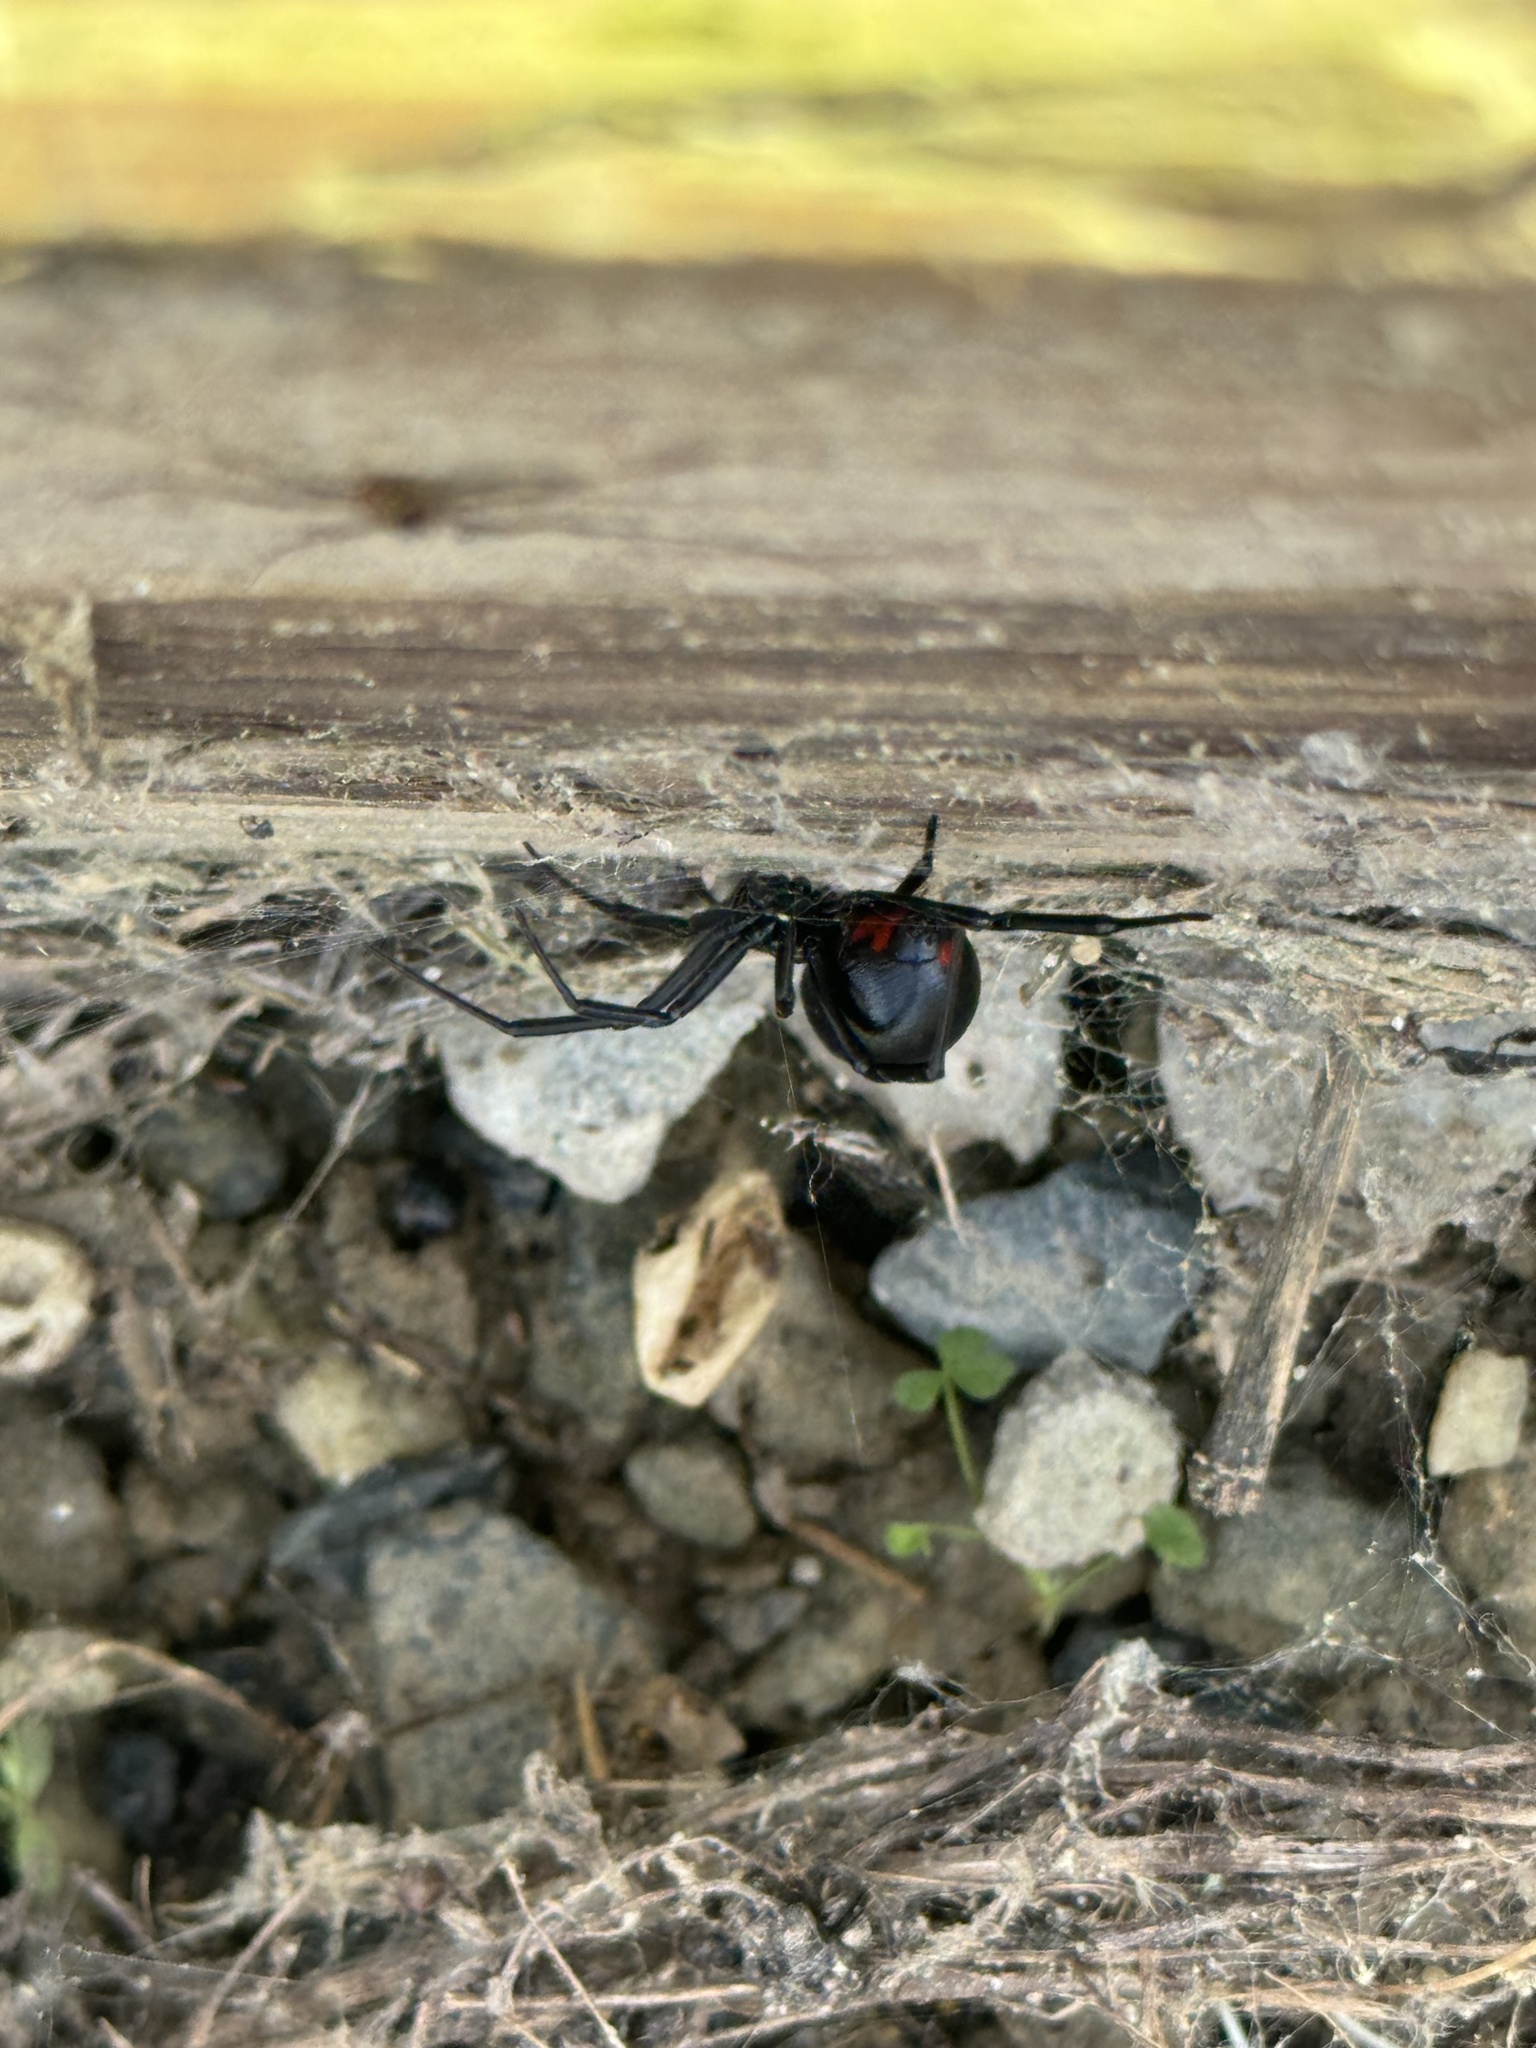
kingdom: Animalia
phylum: Arthropoda
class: Arachnida
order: Araneae
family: Theridiidae
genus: Latrodectus
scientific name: Latrodectus mactans
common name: Cobweb spiders
